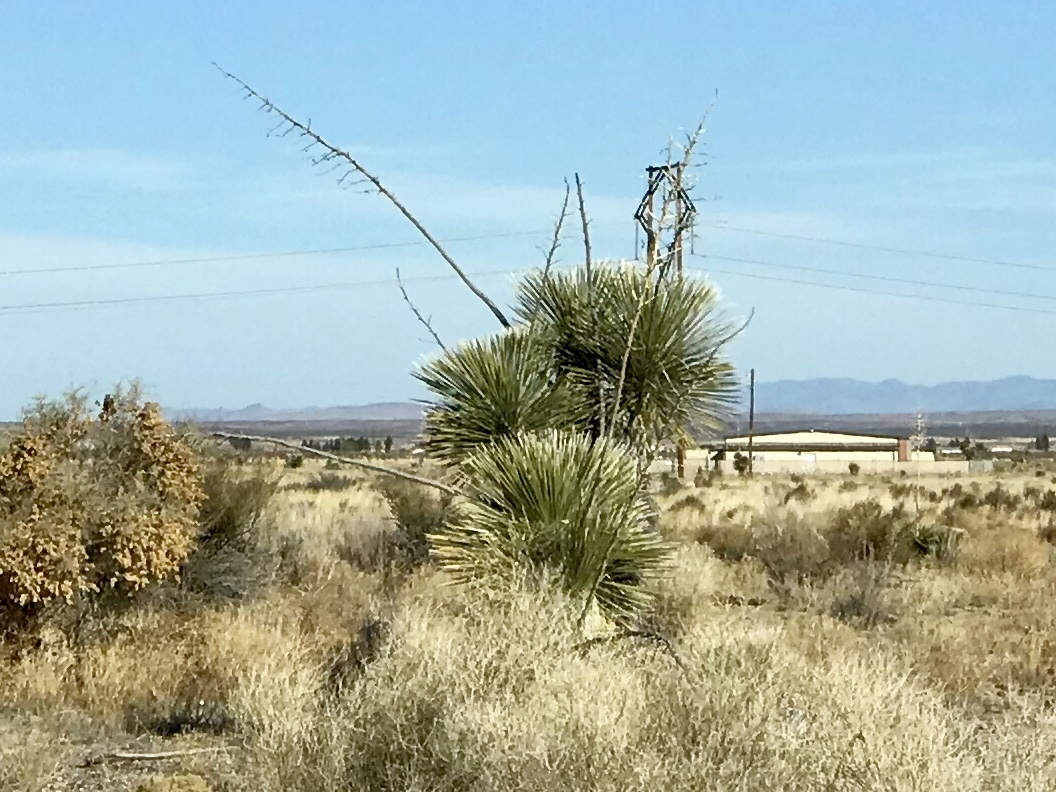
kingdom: Plantae
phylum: Tracheophyta
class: Liliopsida
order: Asparagales
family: Asparagaceae
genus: Yucca
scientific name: Yucca elata
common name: Palmella
